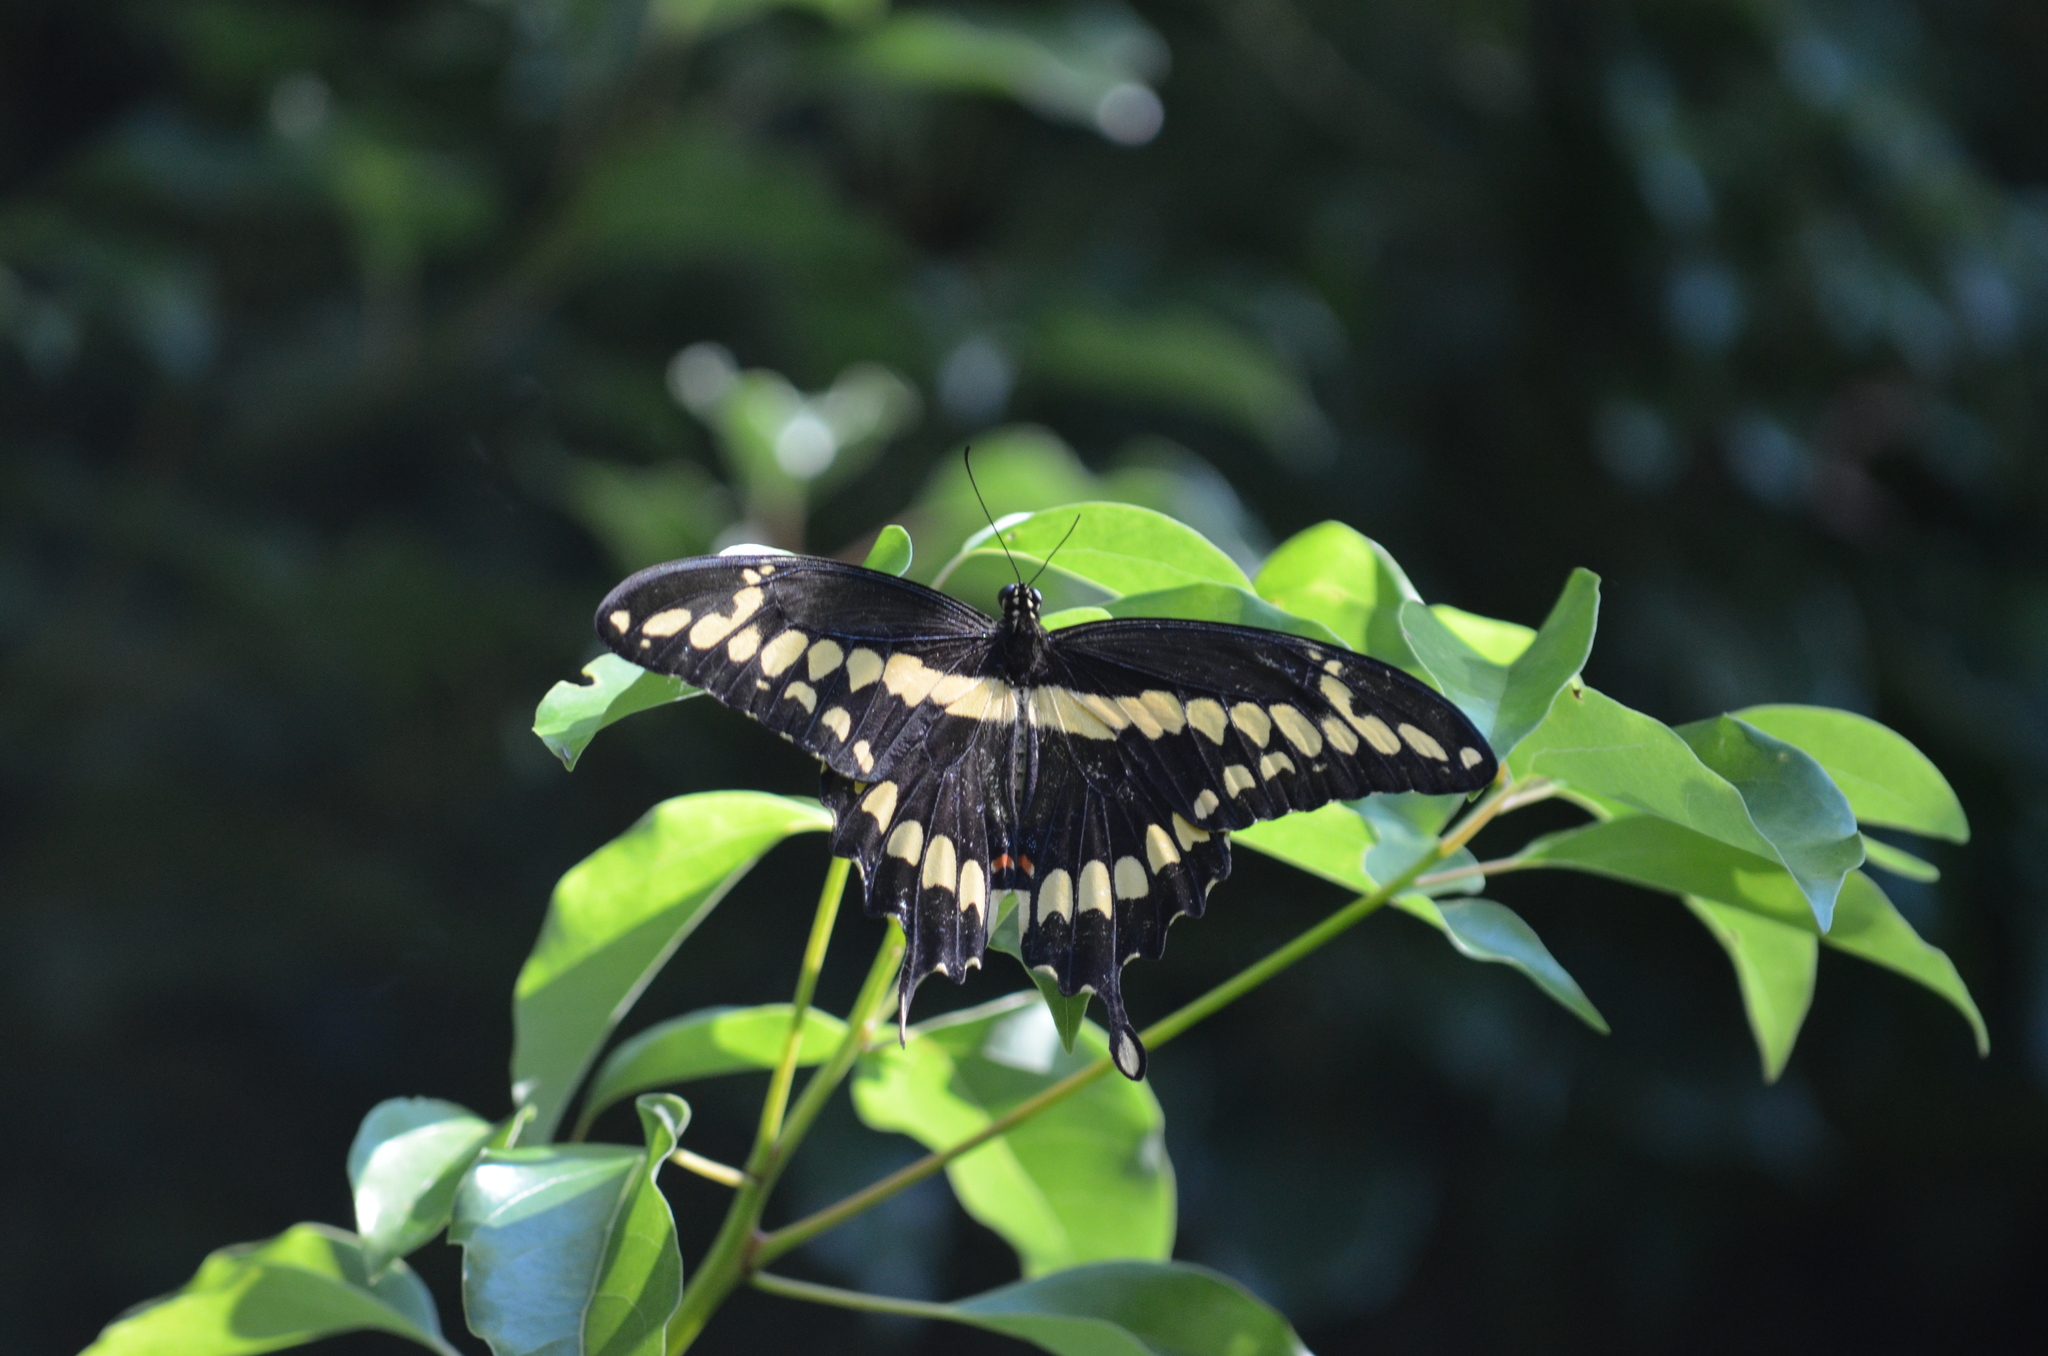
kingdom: Animalia
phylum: Arthropoda
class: Insecta
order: Lepidoptera
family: Papilionidae
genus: Papilio
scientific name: Papilio cresphontes
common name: Giant swallowtail
